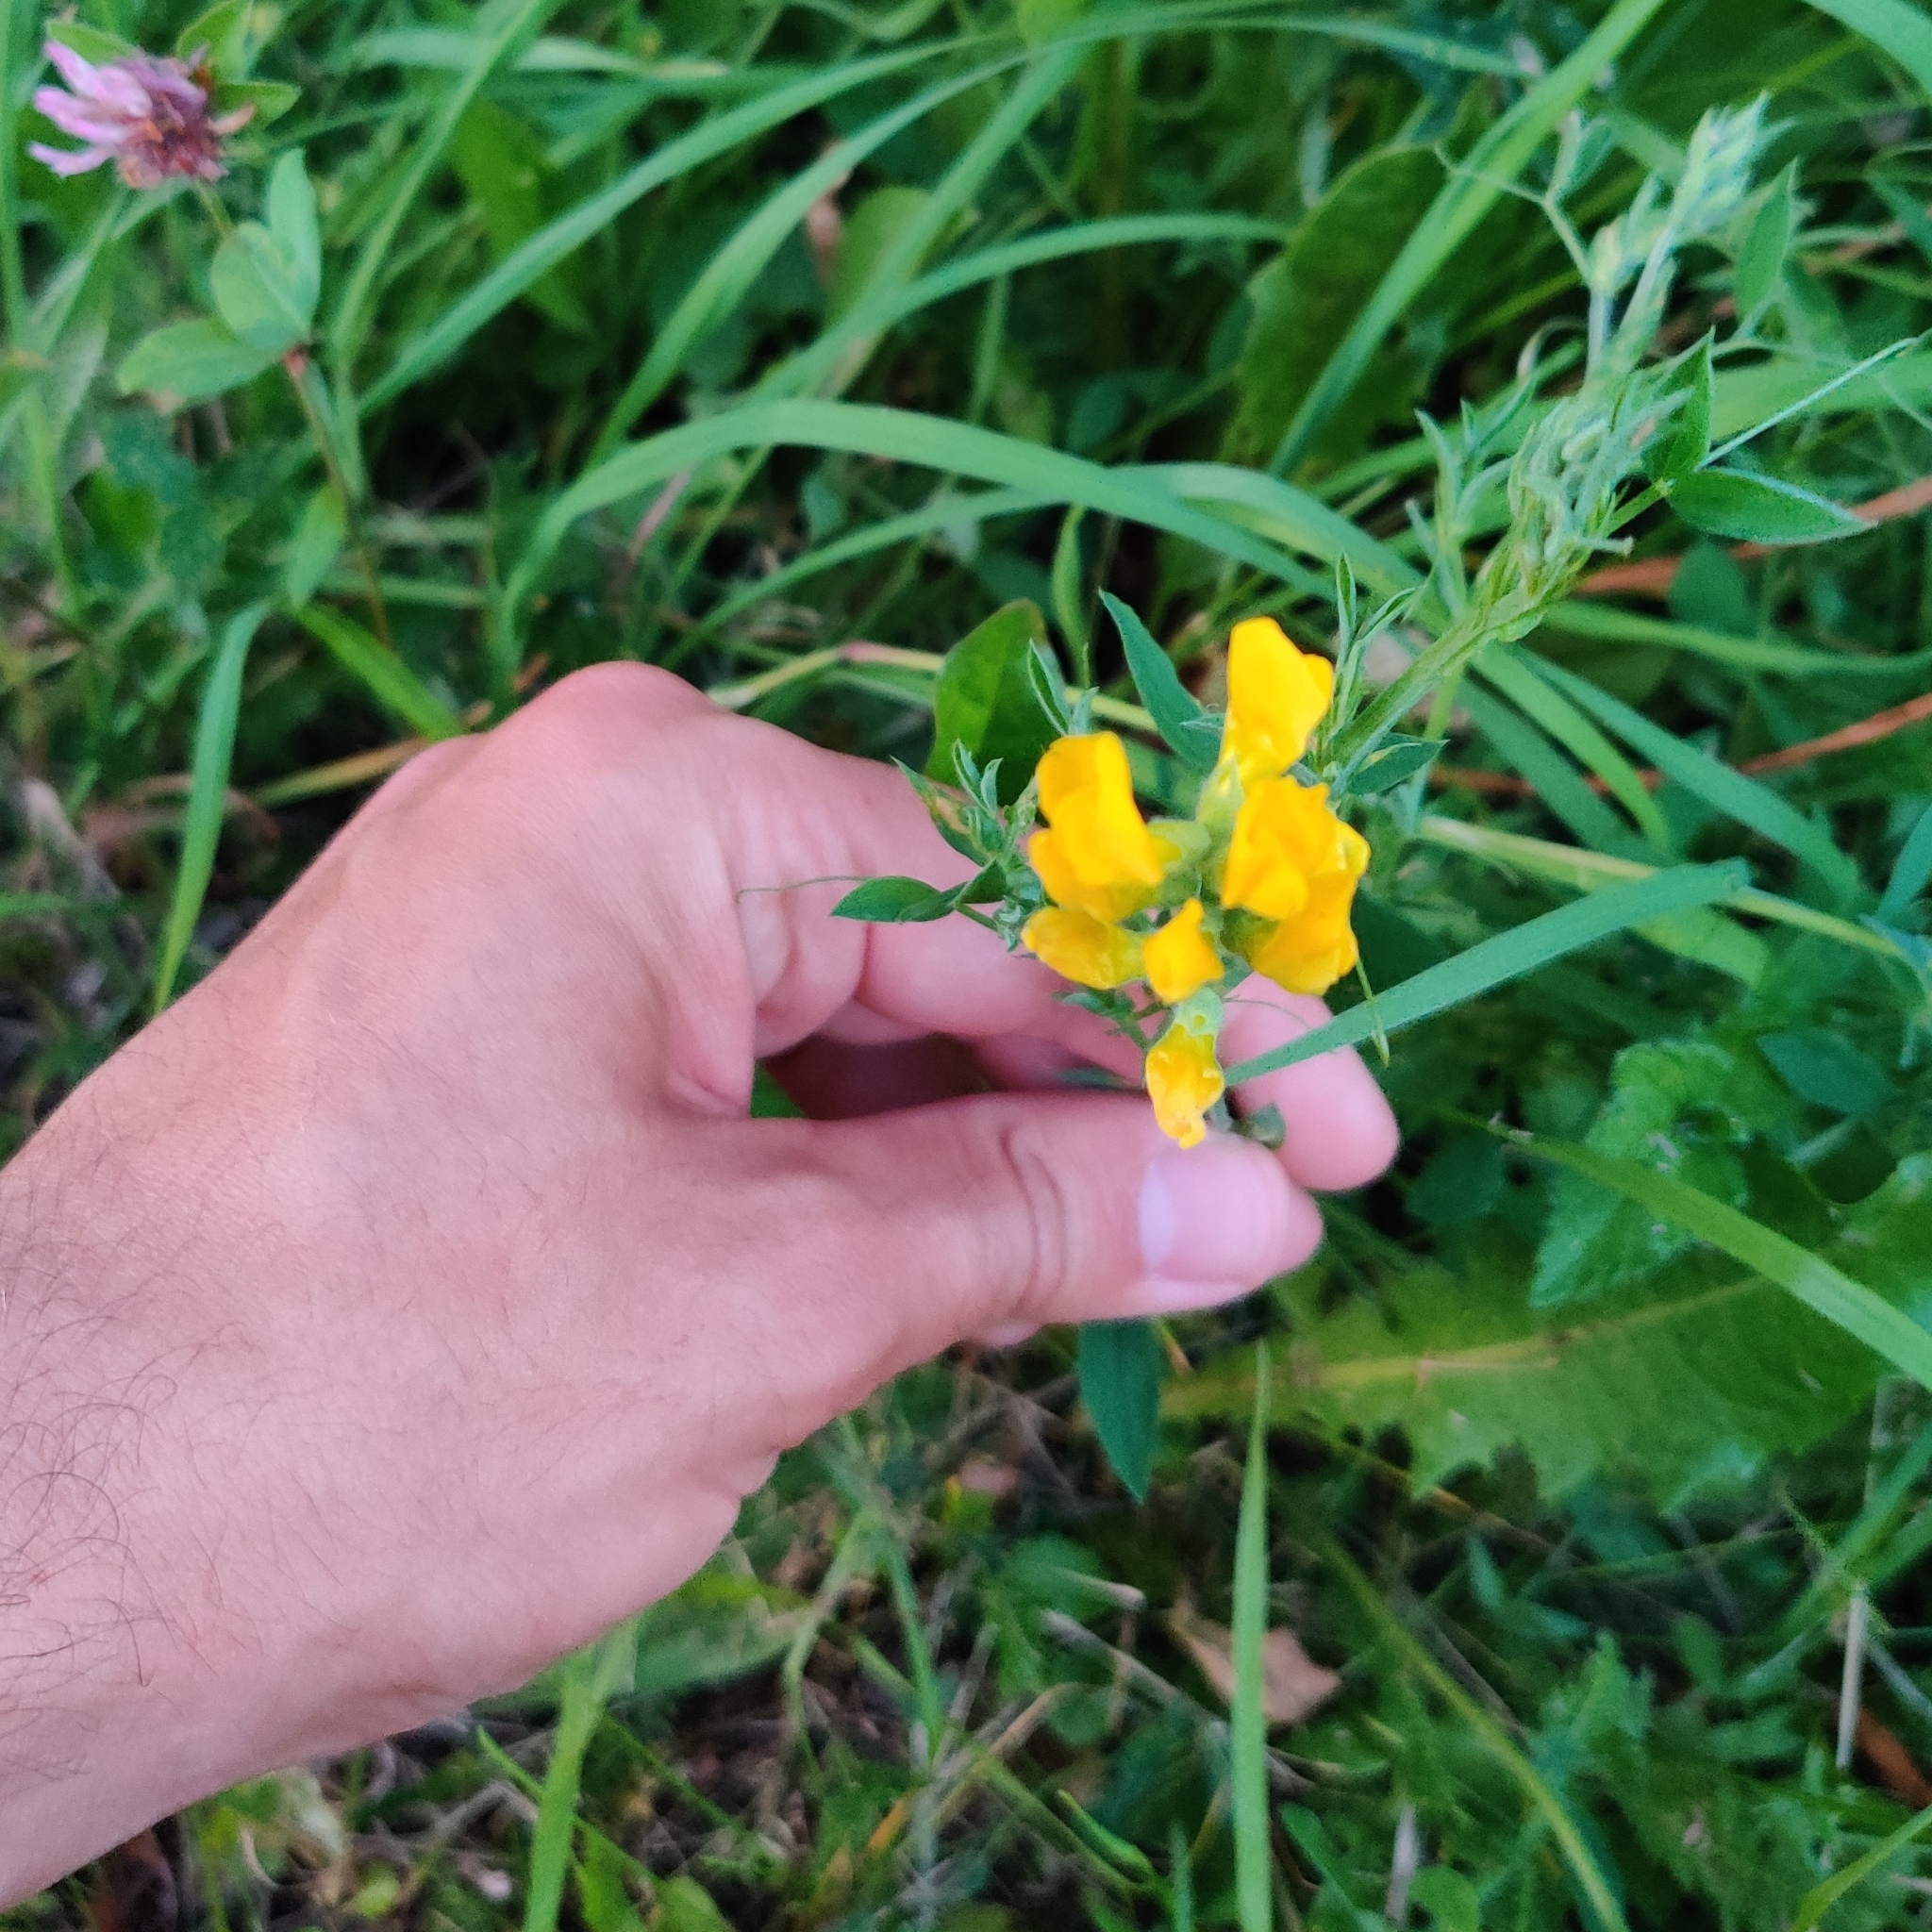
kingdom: Plantae
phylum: Tracheophyta
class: Magnoliopsida
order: Fabales
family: Fabaceae
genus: Lathyrus
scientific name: Lathyrus pratensis
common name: Meadow vetchling
